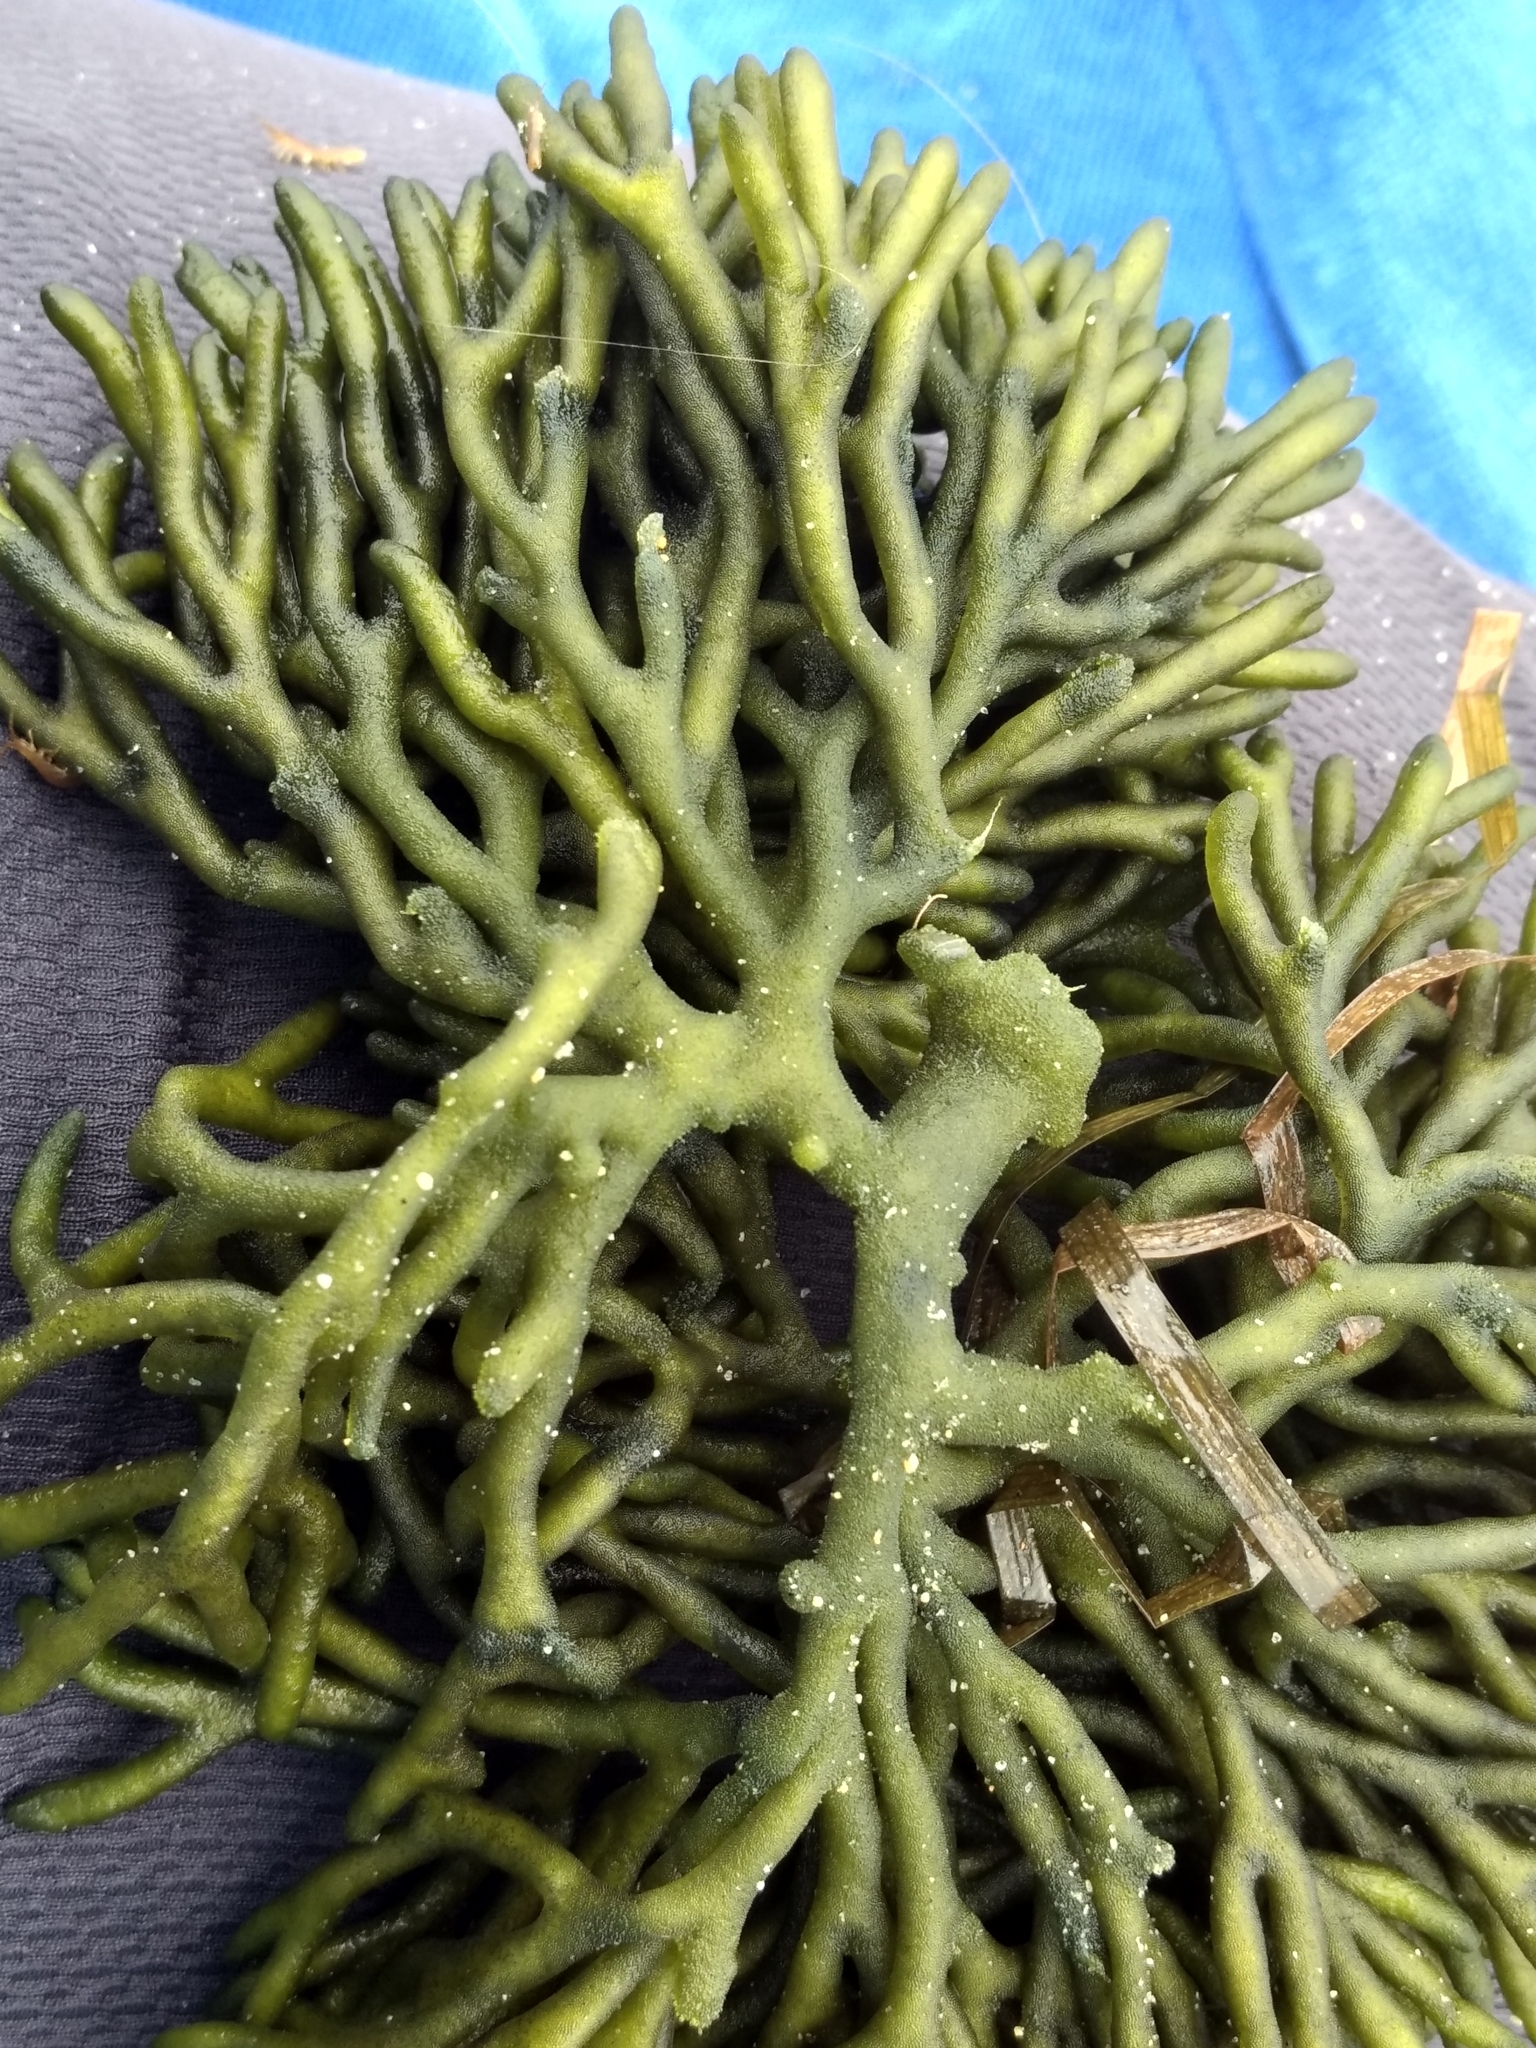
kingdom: Plantae
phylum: Chlorophyta
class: Ulvophyceae
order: Bryopsidales
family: Codiaceae
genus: Codium
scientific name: Codium fragile
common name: Dead man's fingers
